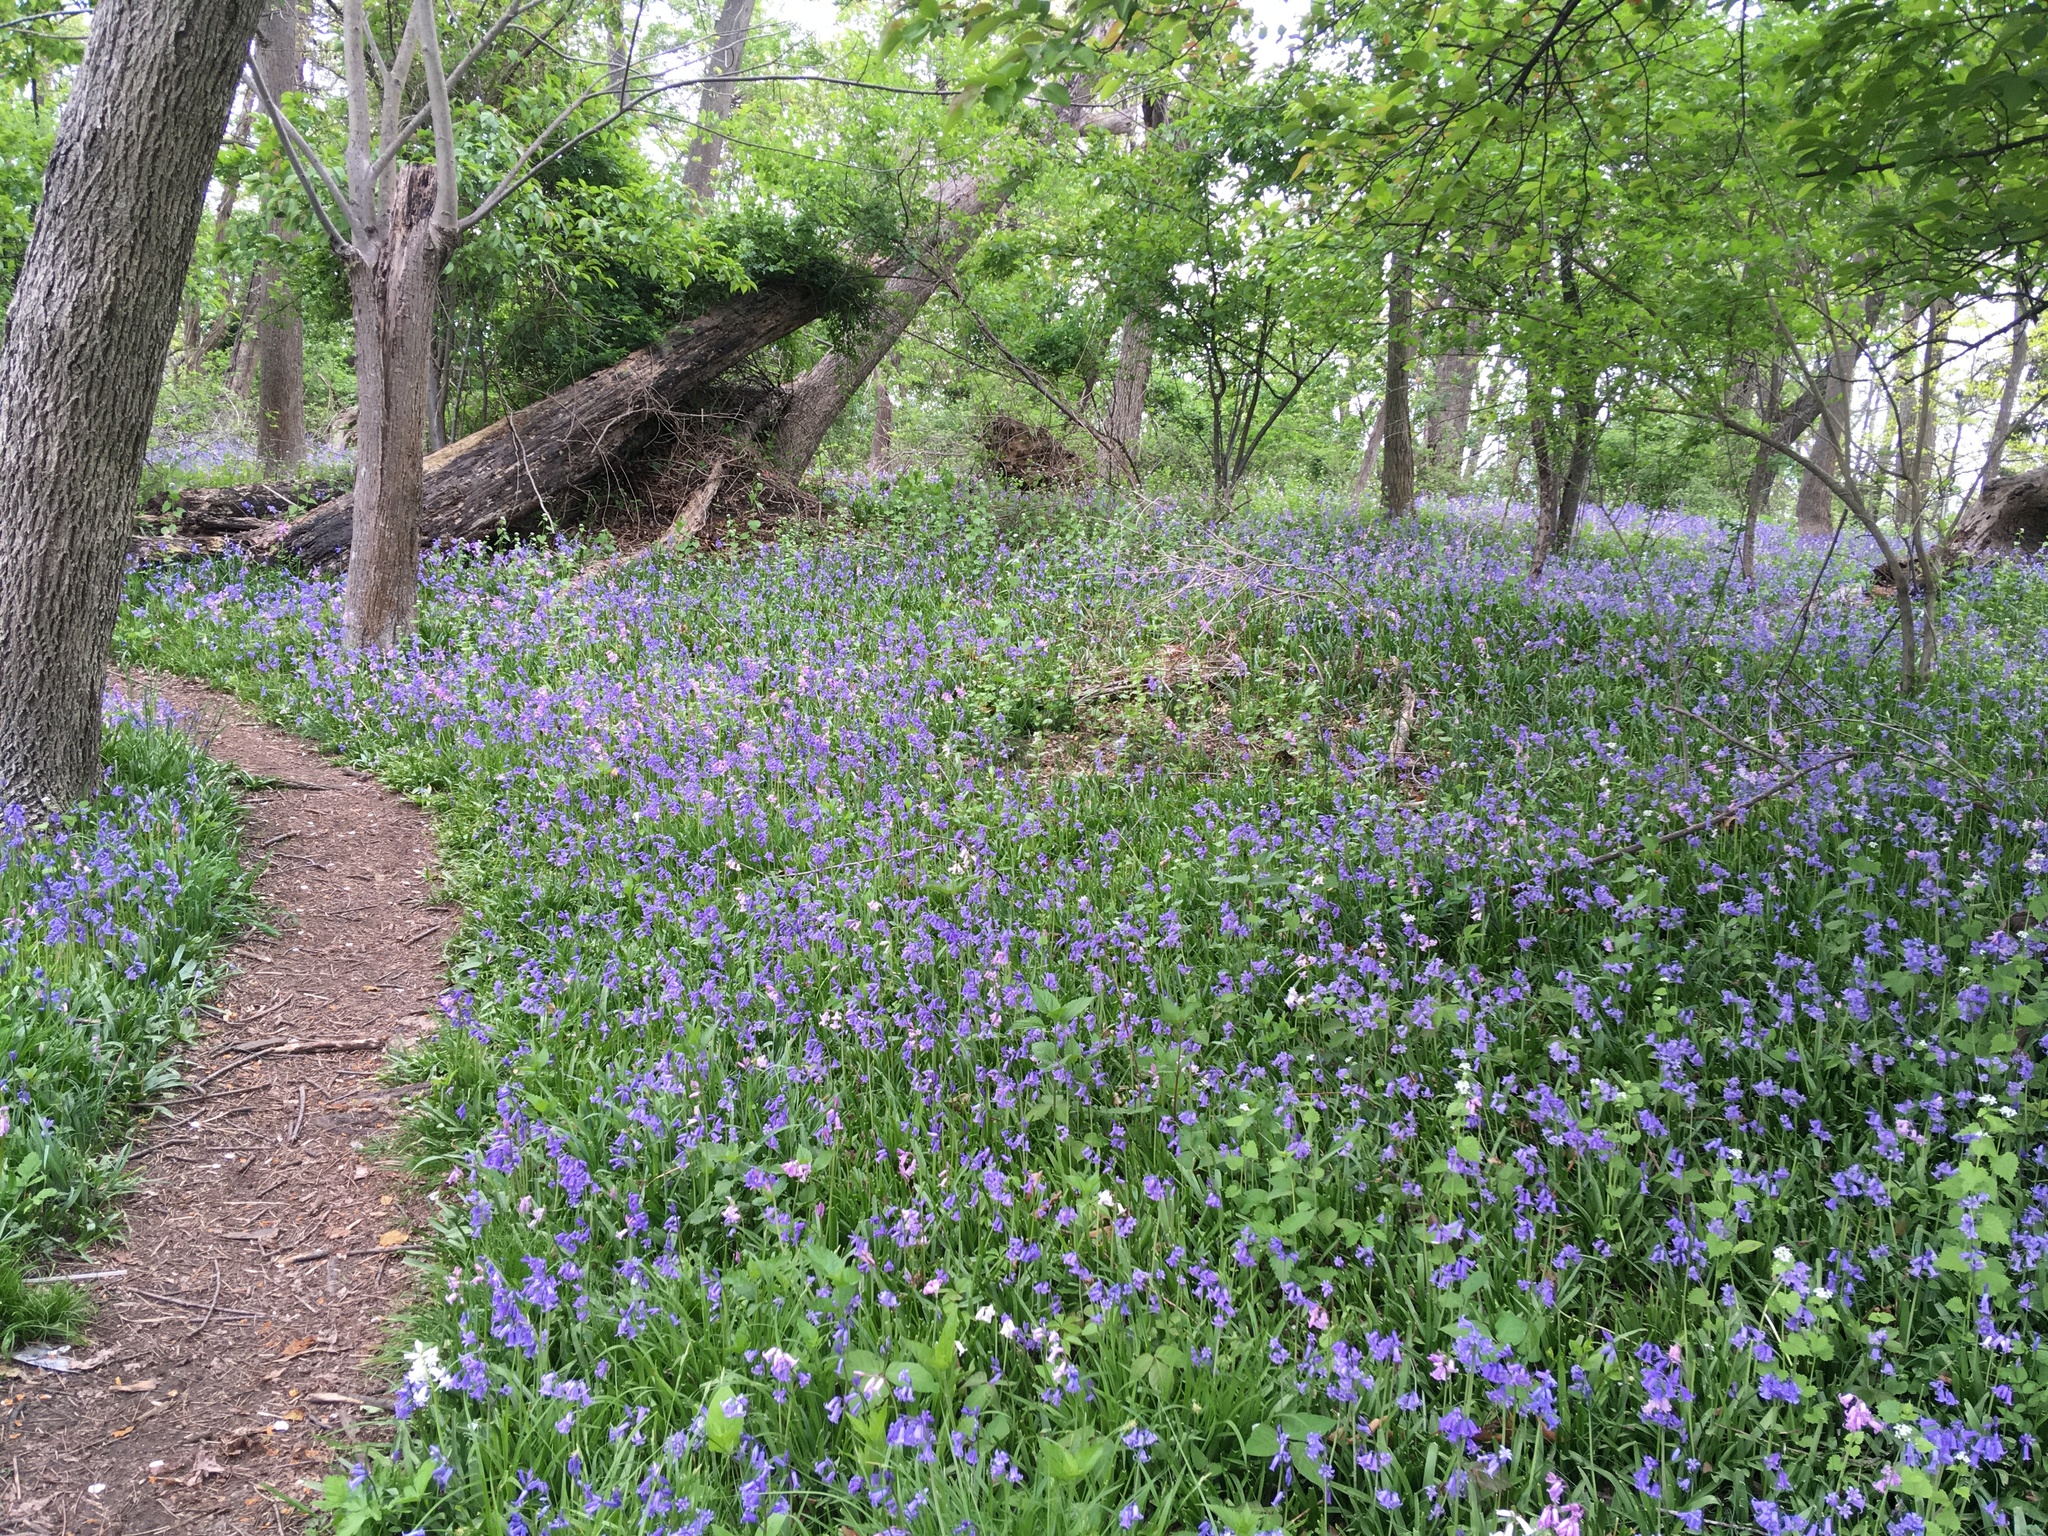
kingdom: Plantae
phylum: Tracheophyta
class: Liliopsida
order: Asparagales
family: Asparagaceae
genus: Hyacinthoides
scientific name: Hyacinthoides massartiana
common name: Hyacinthoides
